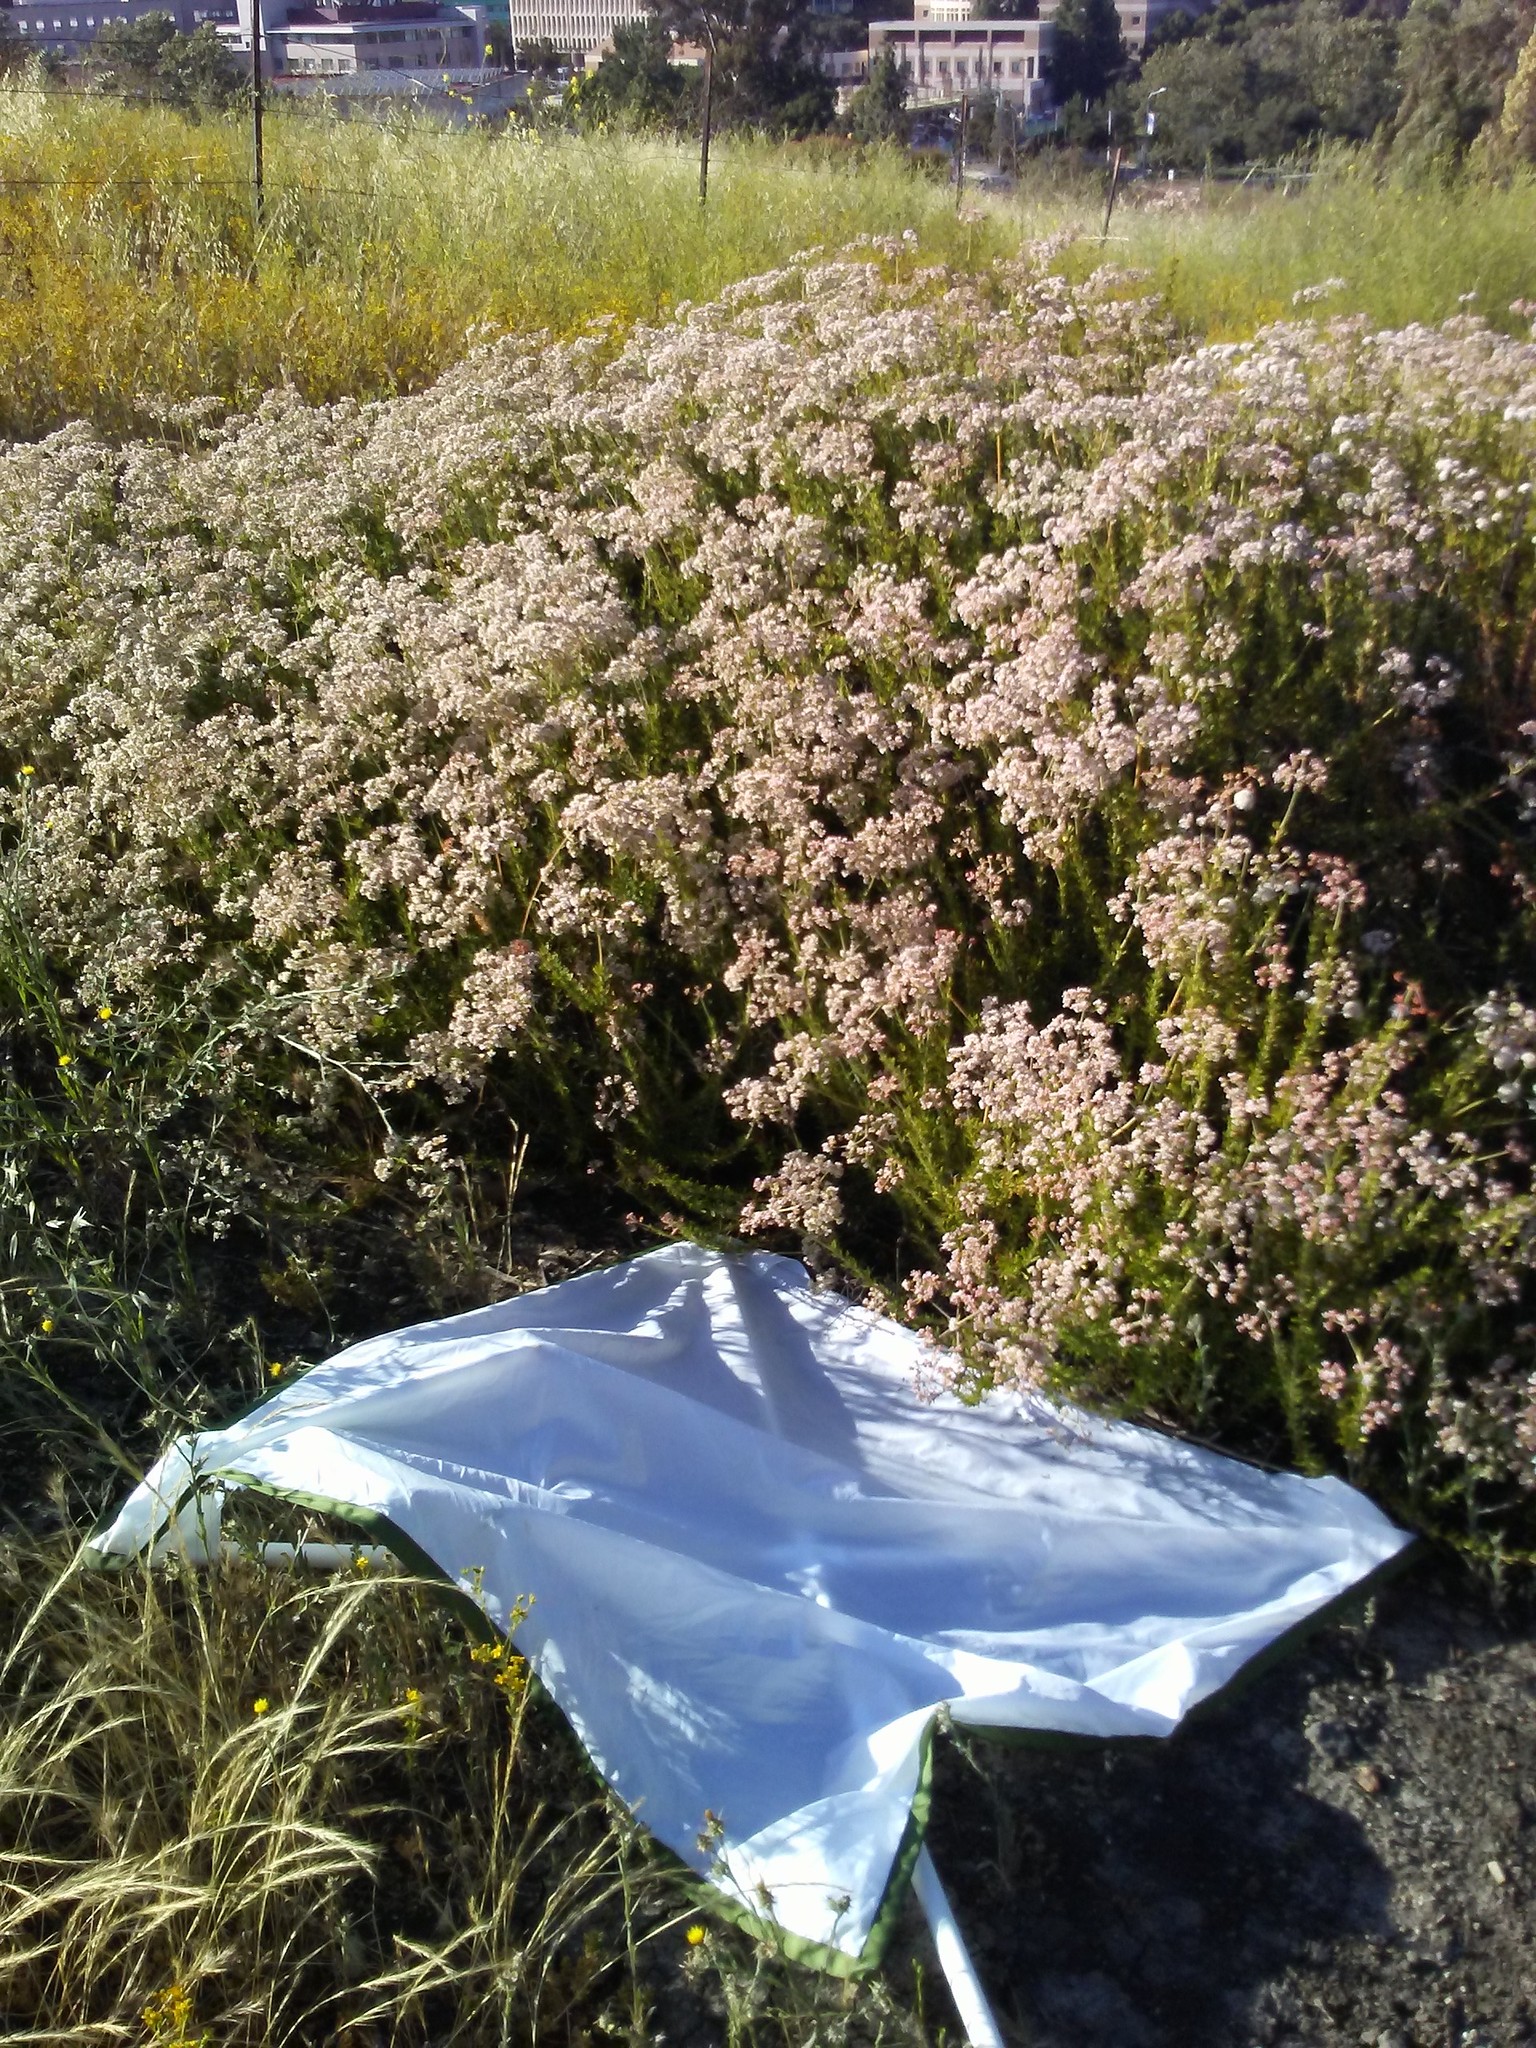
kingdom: Plantae
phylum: Tracheophyta
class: Magnoliopsida
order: Caryophyllales
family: Polygonaceae
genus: Eriogonum
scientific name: Eriogonum fasciculatum
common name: California wild buckwheat
